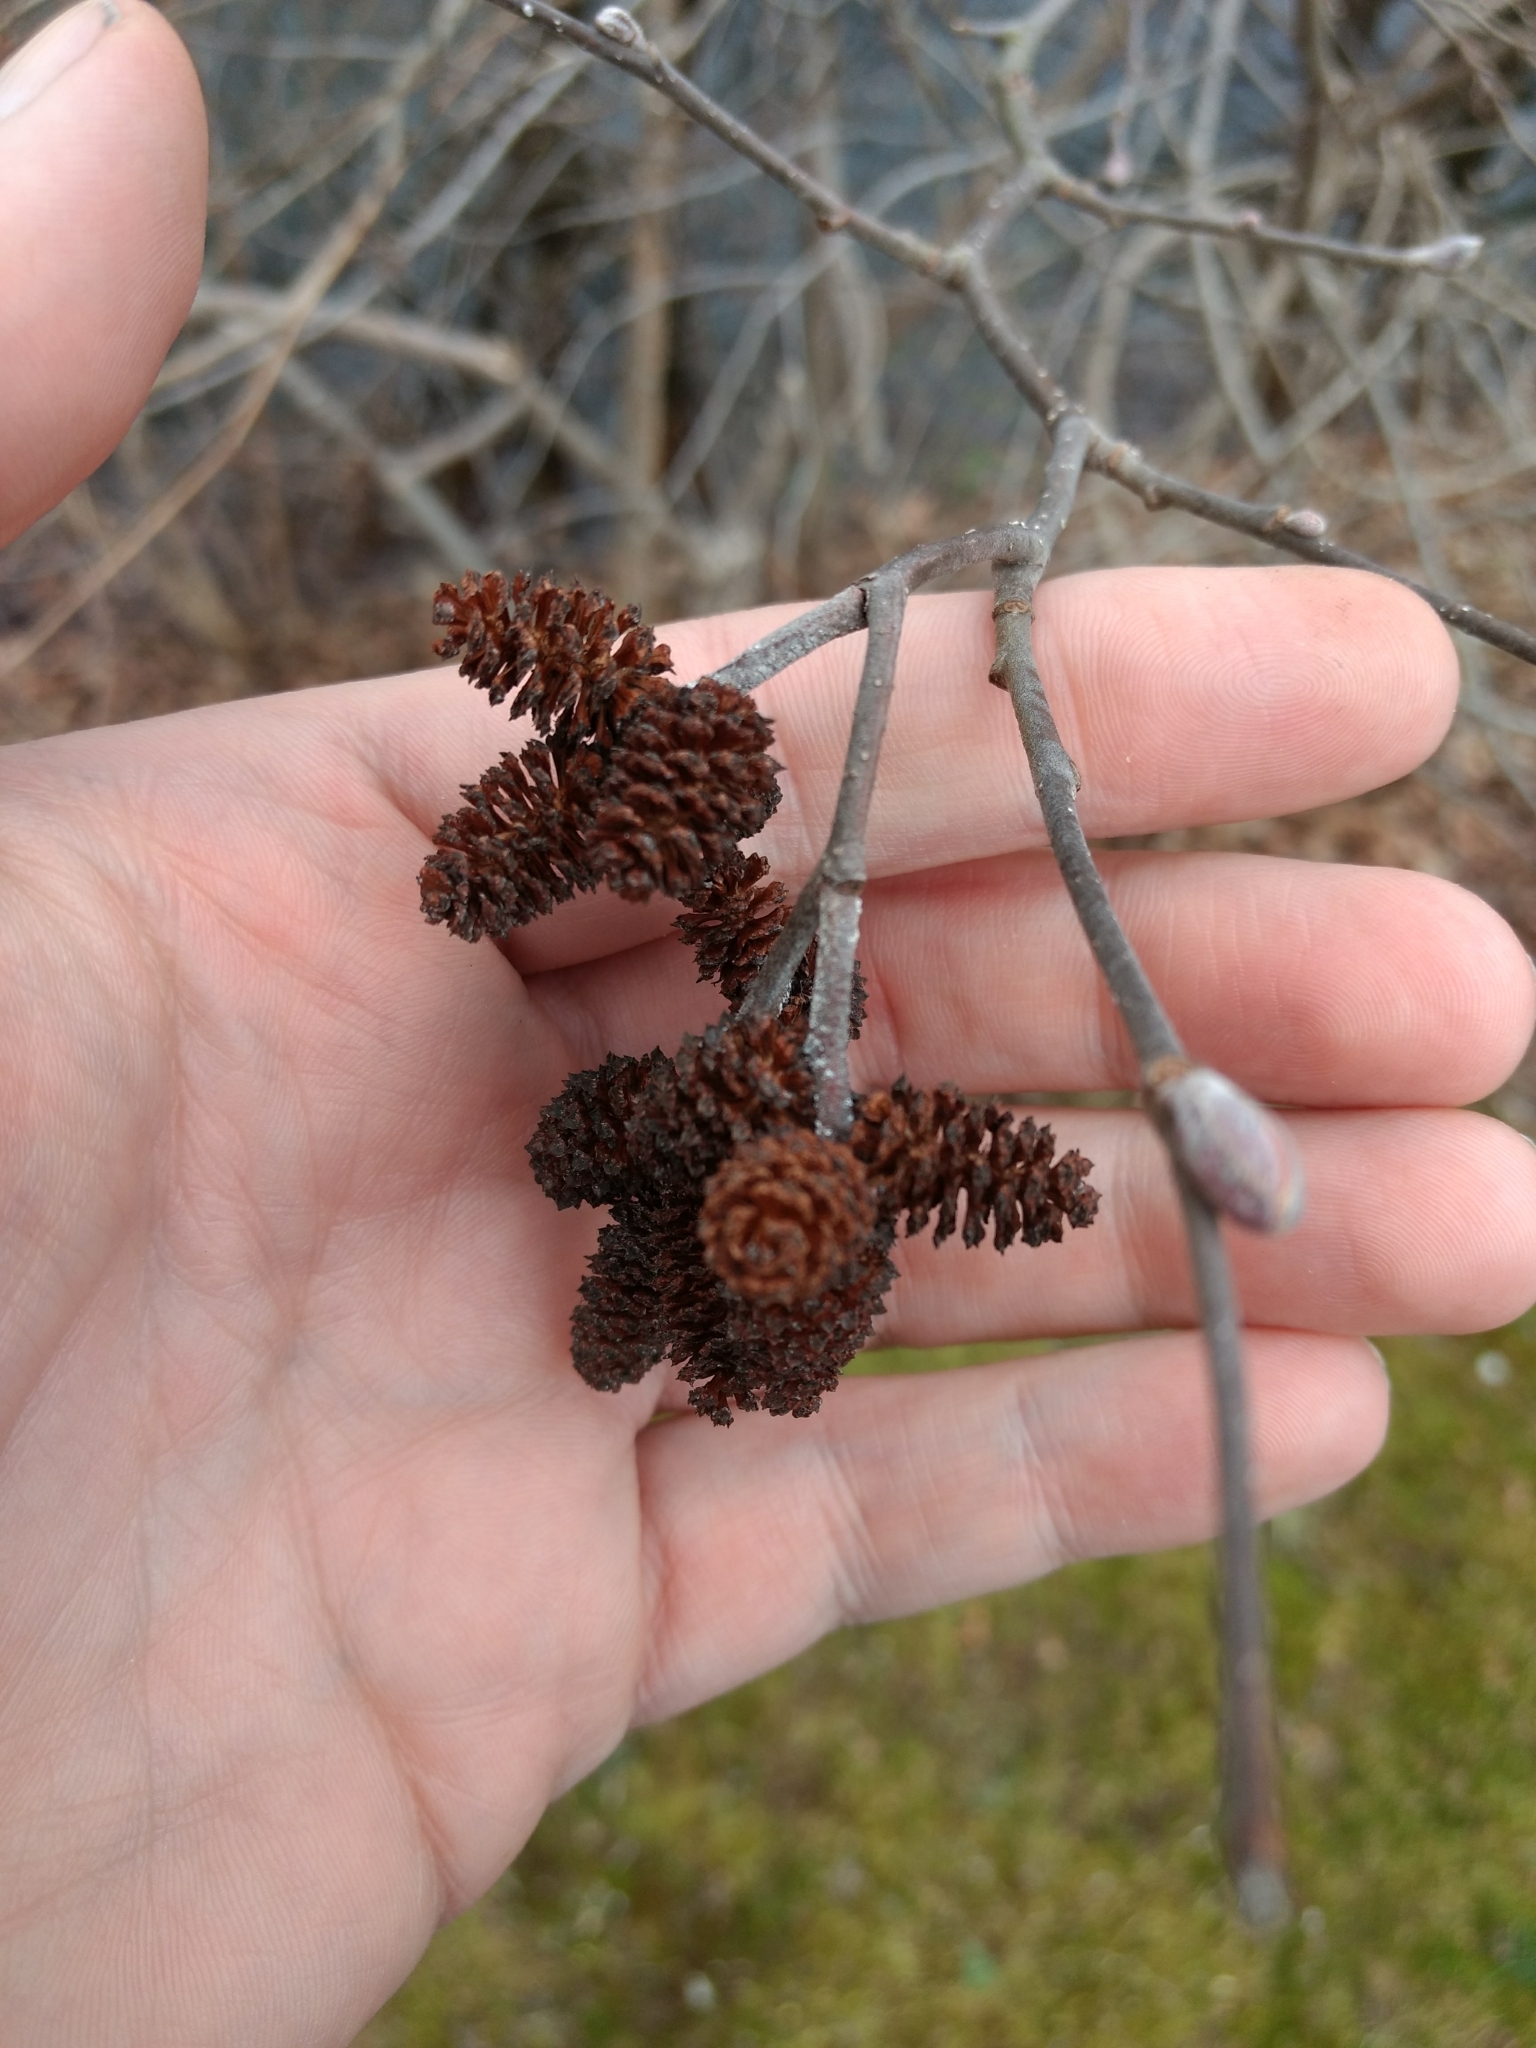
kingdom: Plantae
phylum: Tracheophyta
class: Magnoliopsida
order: Fagales
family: Betulaceae
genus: Alnus
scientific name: Alnus incana
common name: Grey alder
